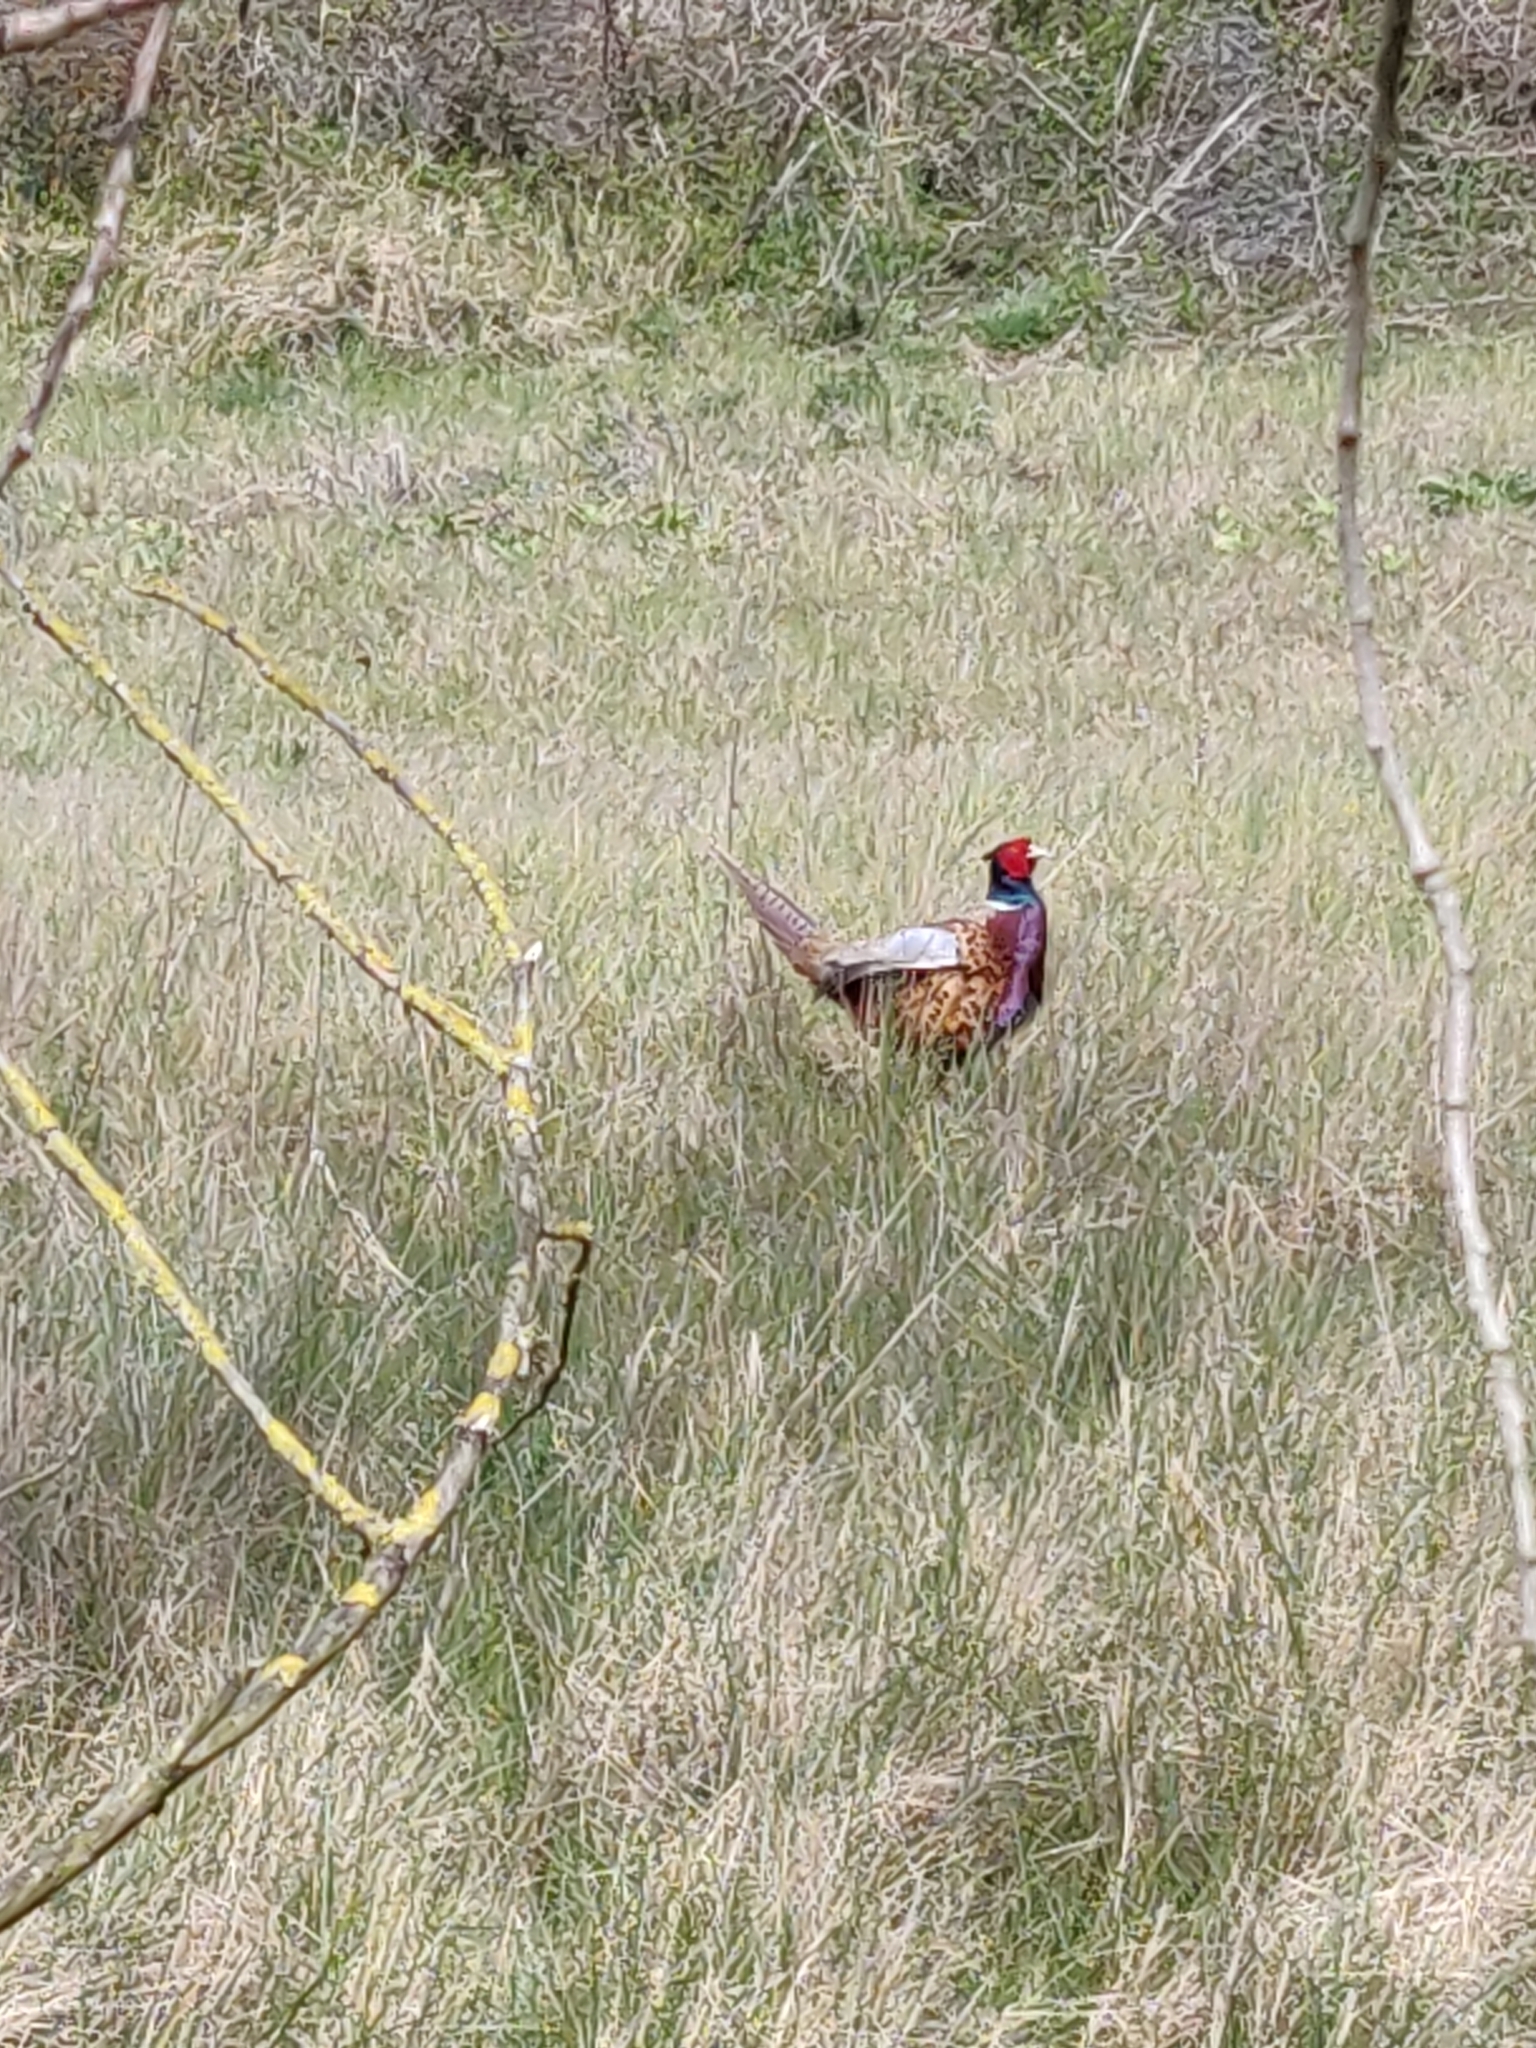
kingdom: Animalia
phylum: Chordata
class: Aves
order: Galliformes
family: Phasianidae
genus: Phasianus
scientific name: Phasianus colchicus
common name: Common pheasant
